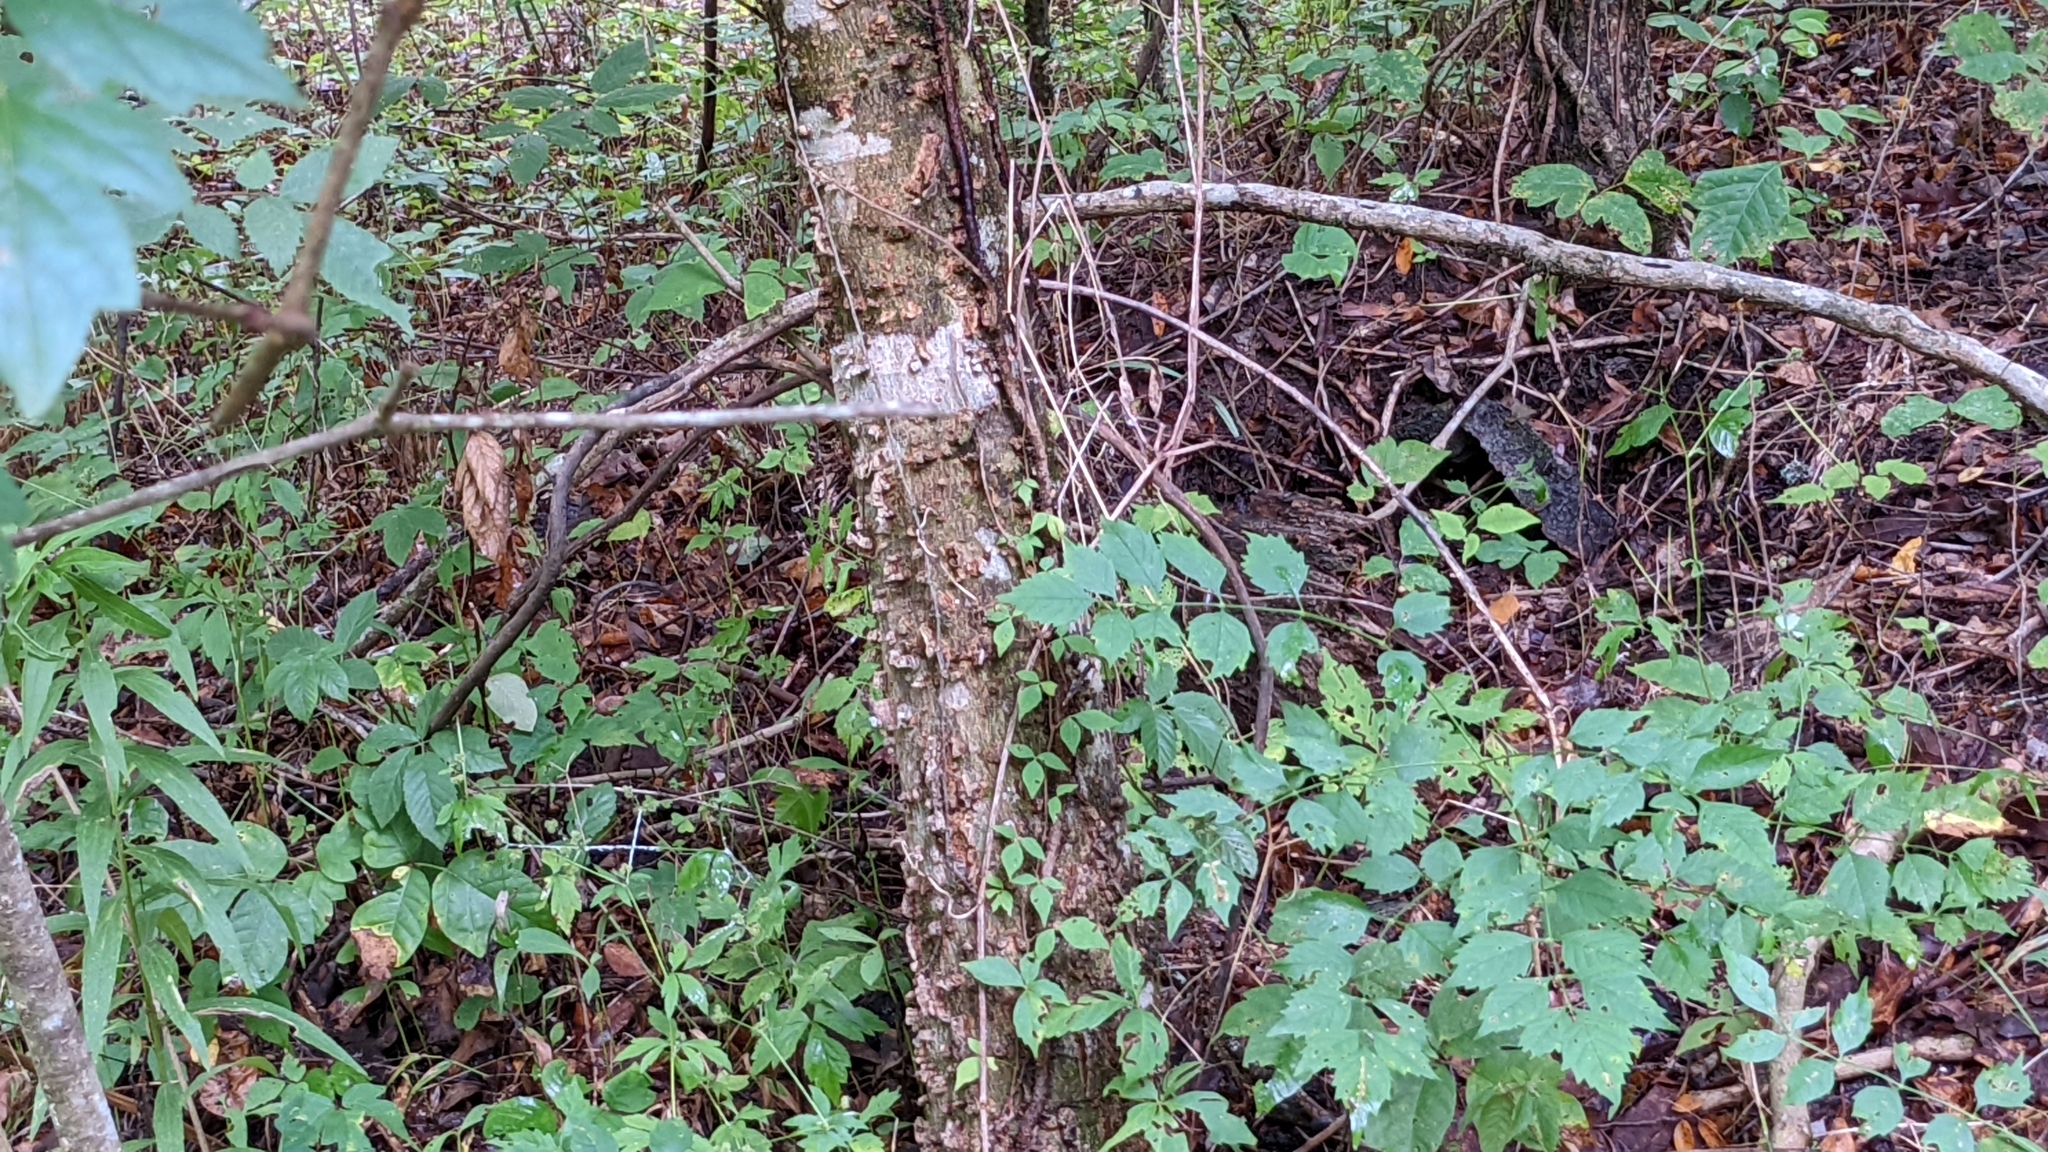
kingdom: Plantae
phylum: Tracheophyta
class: Magnoliopsida
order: Rosales
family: Cannabaceae
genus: Celtis
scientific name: Celtis laevigata
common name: Sugarberry
